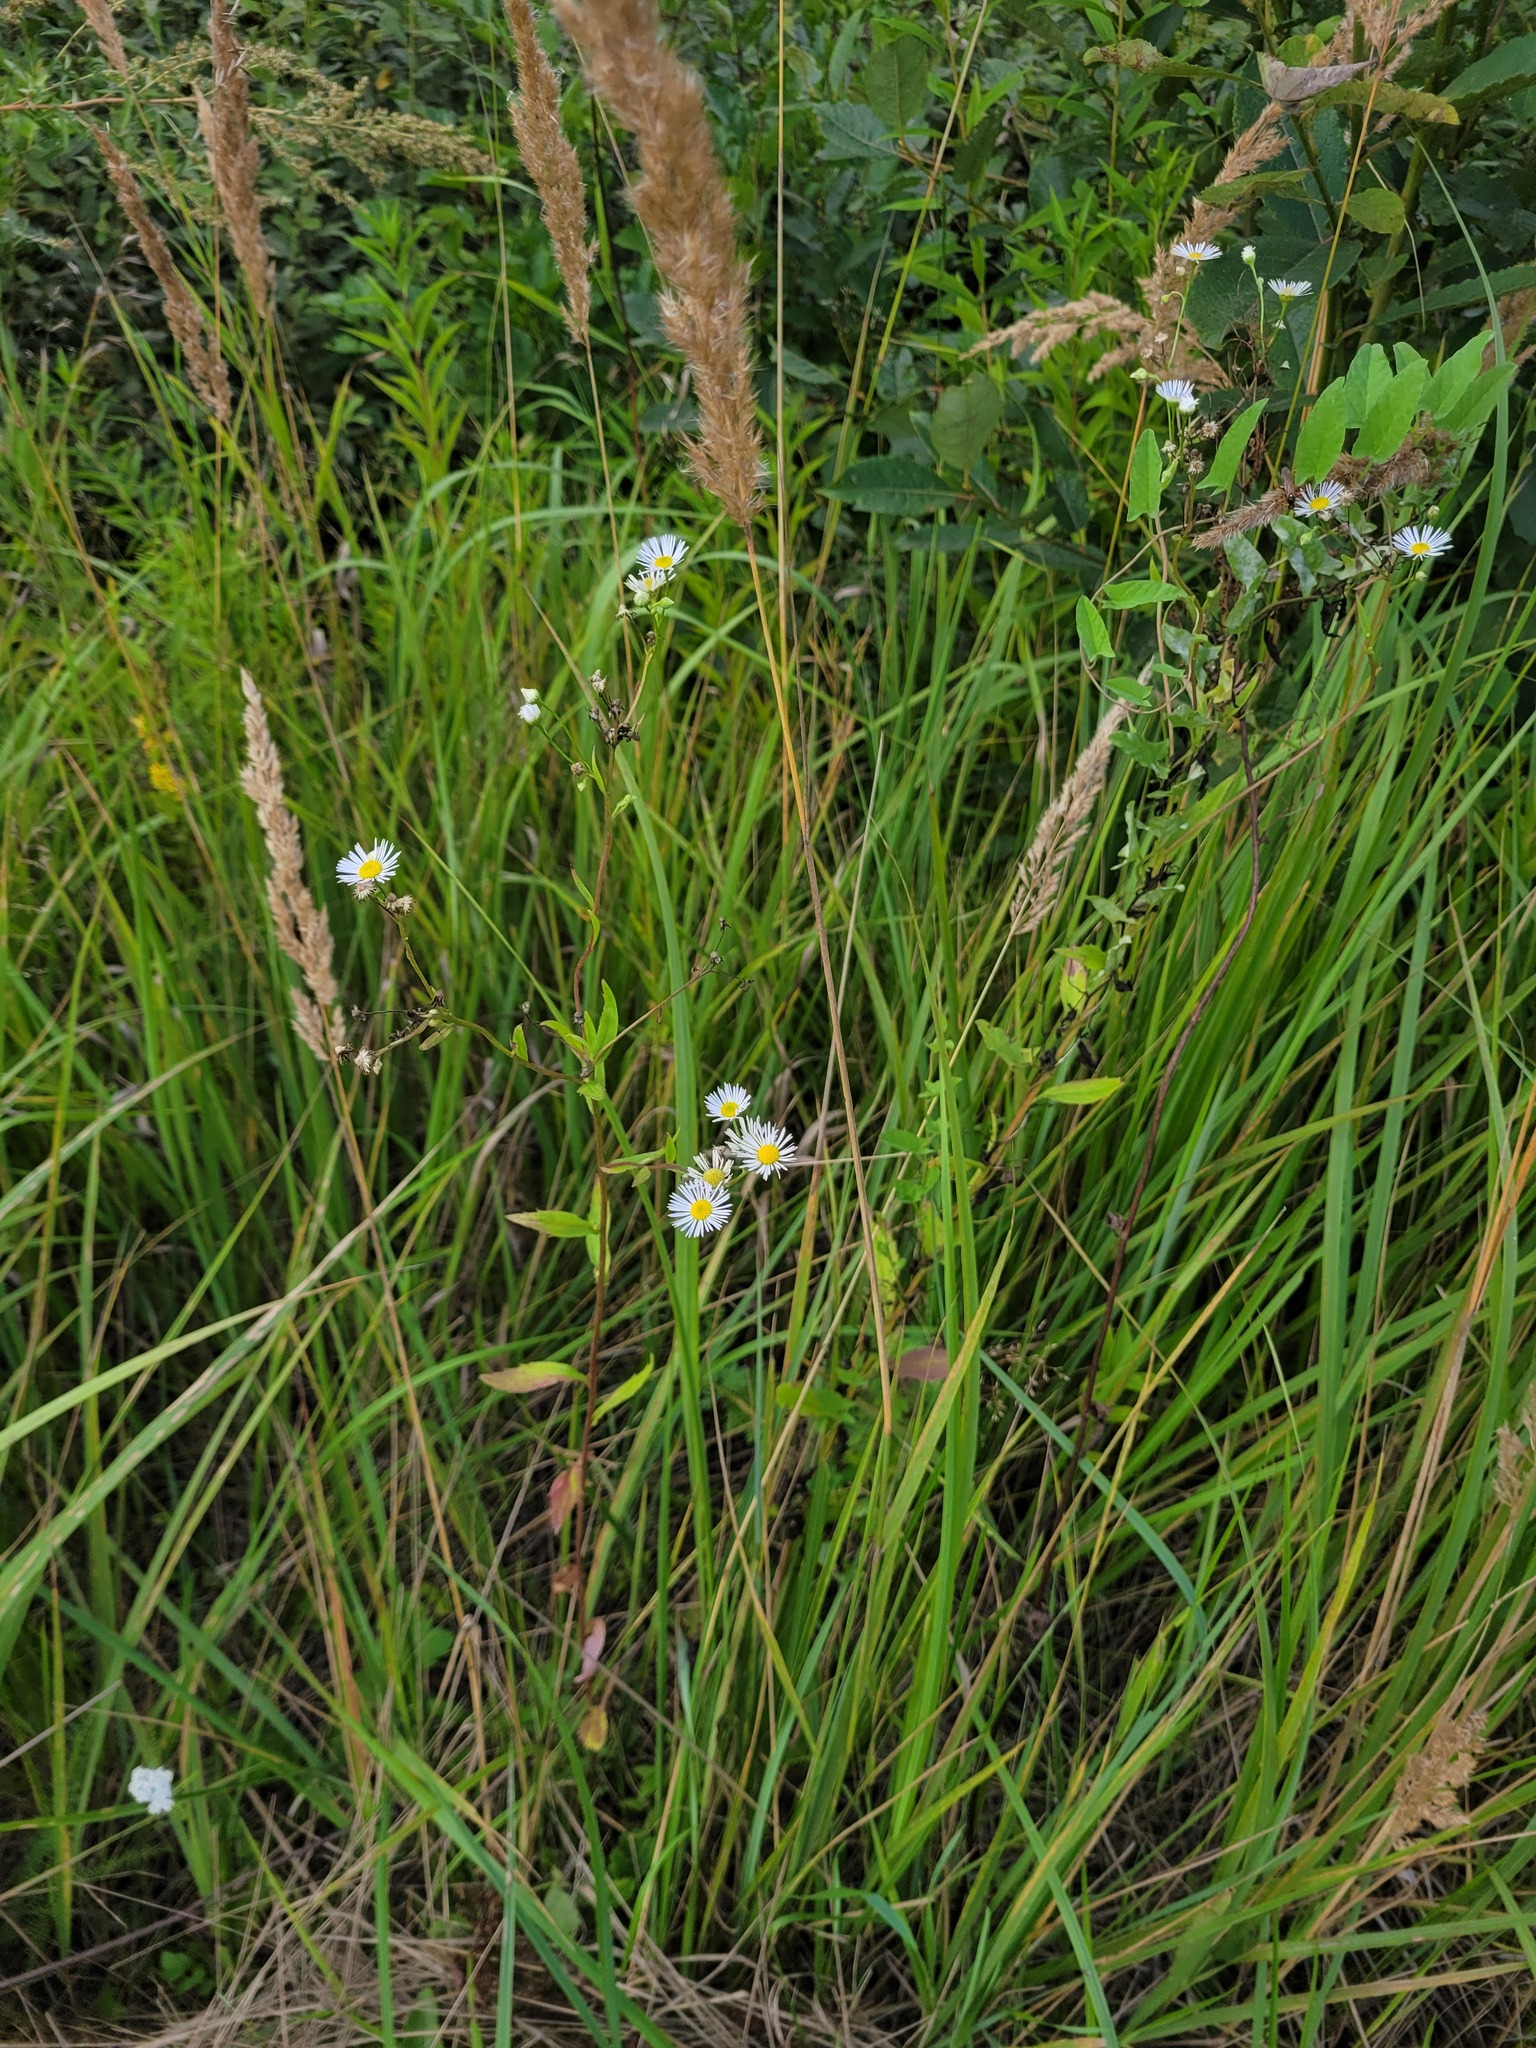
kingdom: Plantae
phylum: Tracheophyta
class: Magnoliopsida
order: Asterales
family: Asteraceae
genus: Erigeron
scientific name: Erigeron annuus
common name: Tall fleabane
